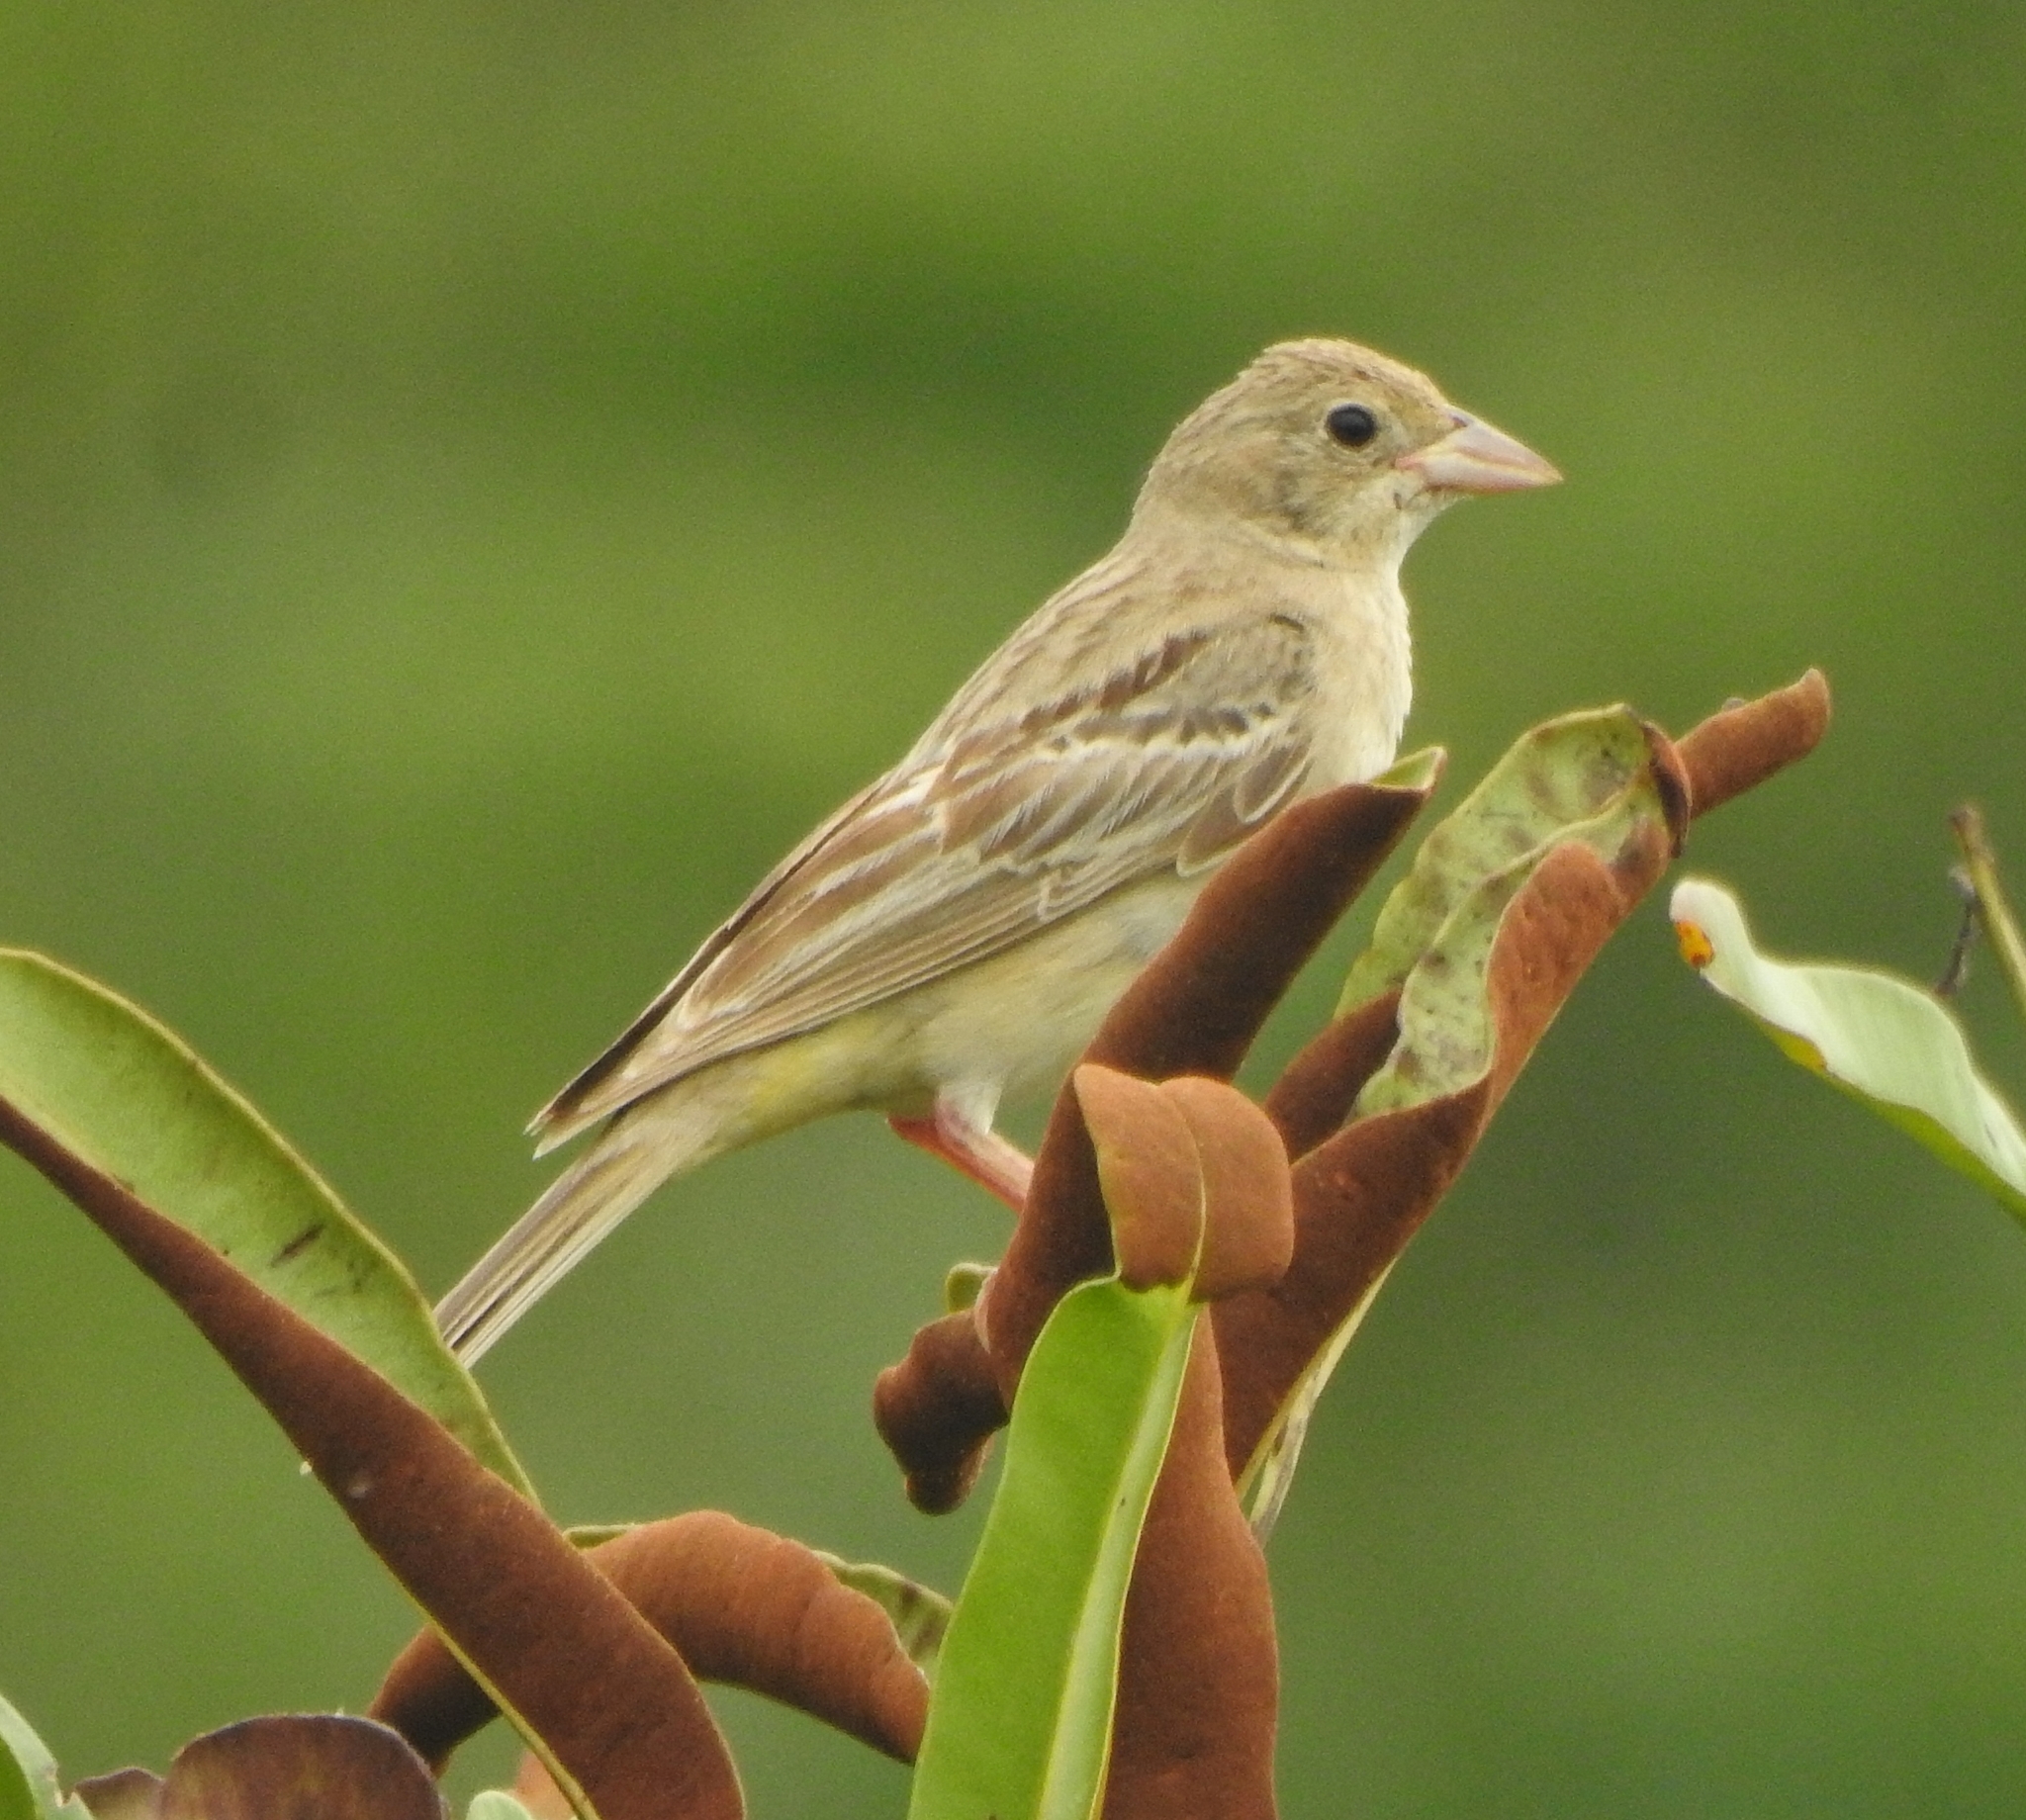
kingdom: Animalia
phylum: Chordata
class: Aves
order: Passeriformes
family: Emberizidae
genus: Emberiza
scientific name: Emberiza melanocephala
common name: Black-headed bunting
